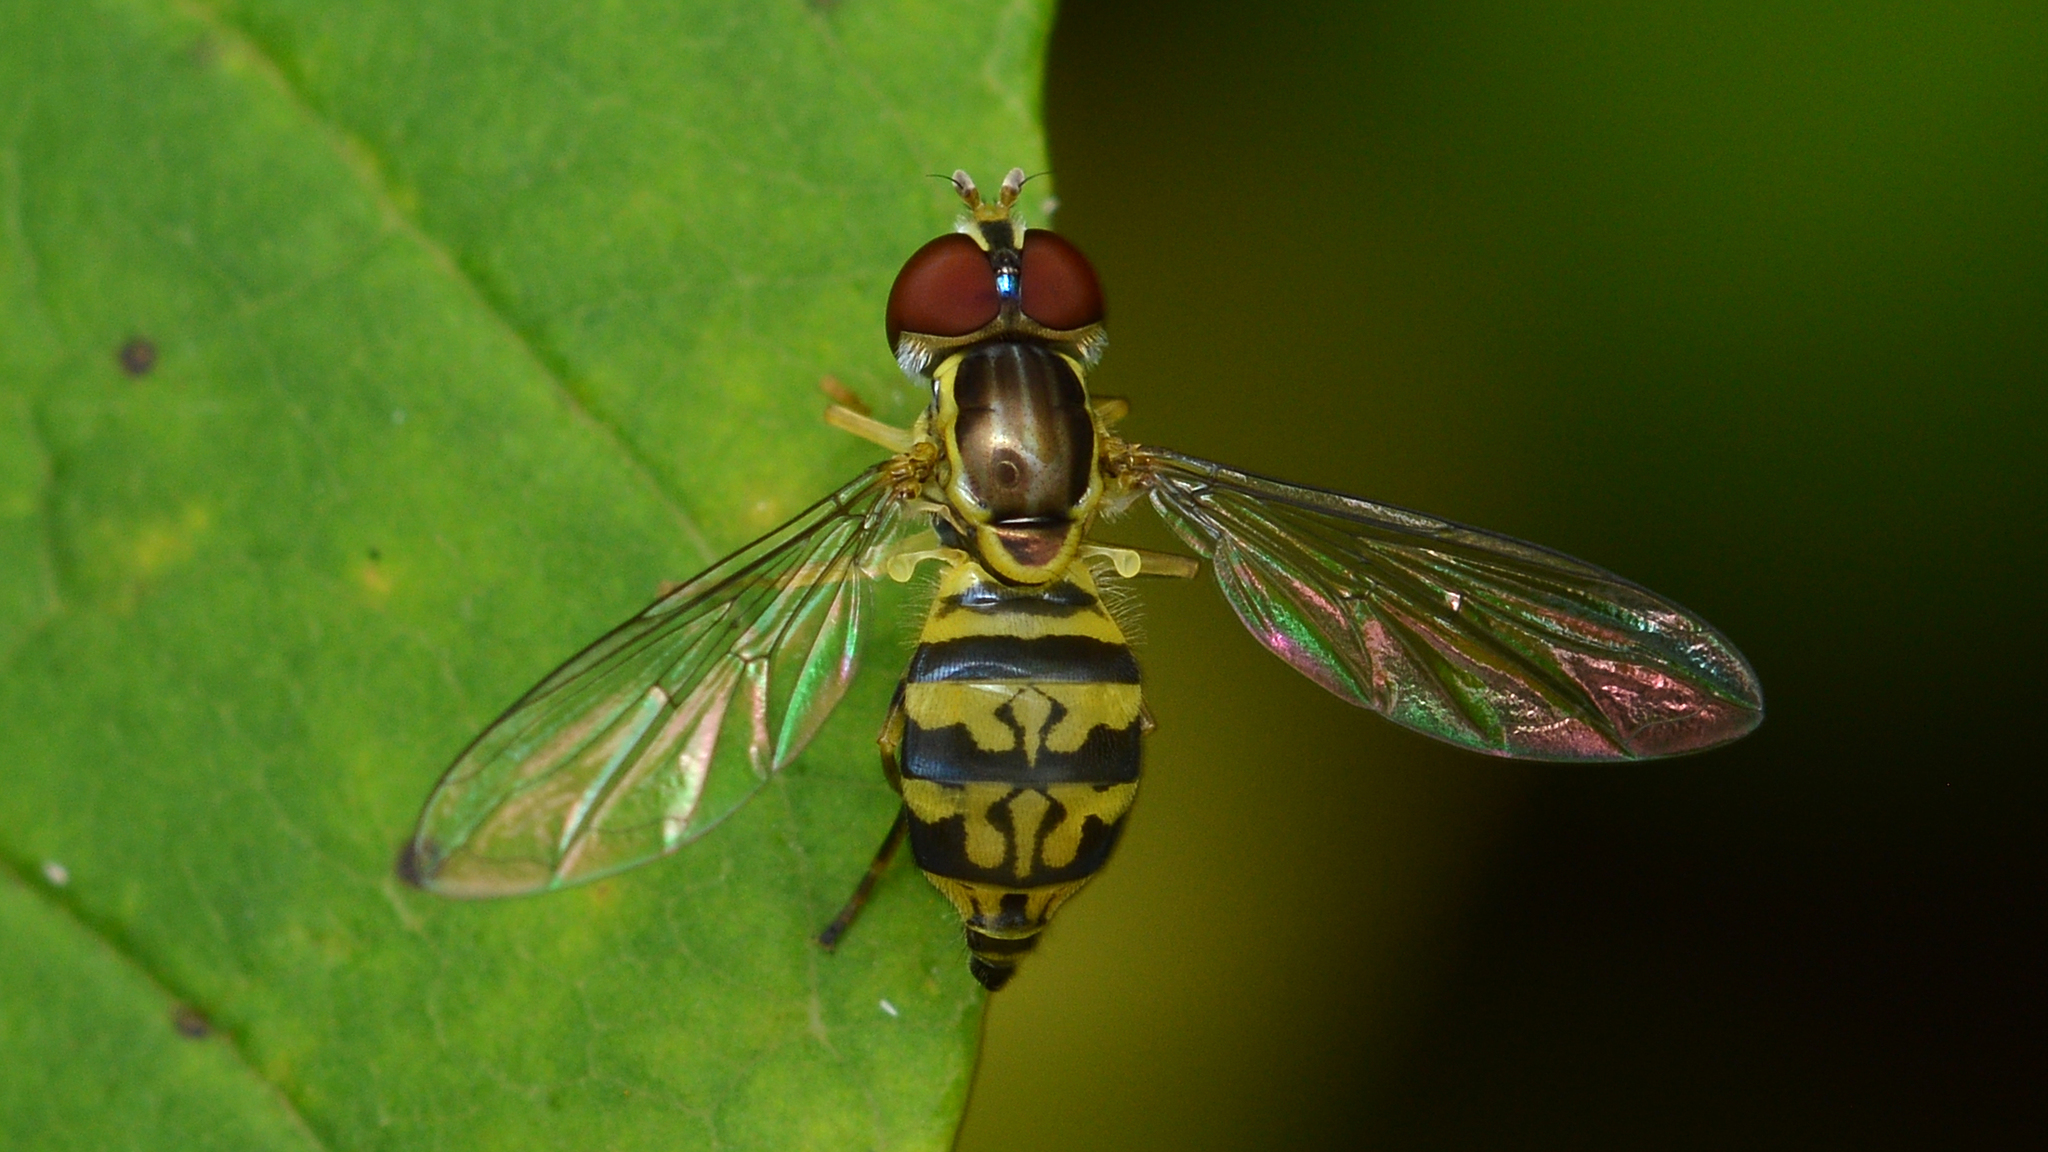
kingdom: Animalia
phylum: Arthropoda
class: Insecta
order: Diptera
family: Syrphidae
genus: Toxomerus
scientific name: Toxomerus geminatus
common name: Eastern calligrapher
